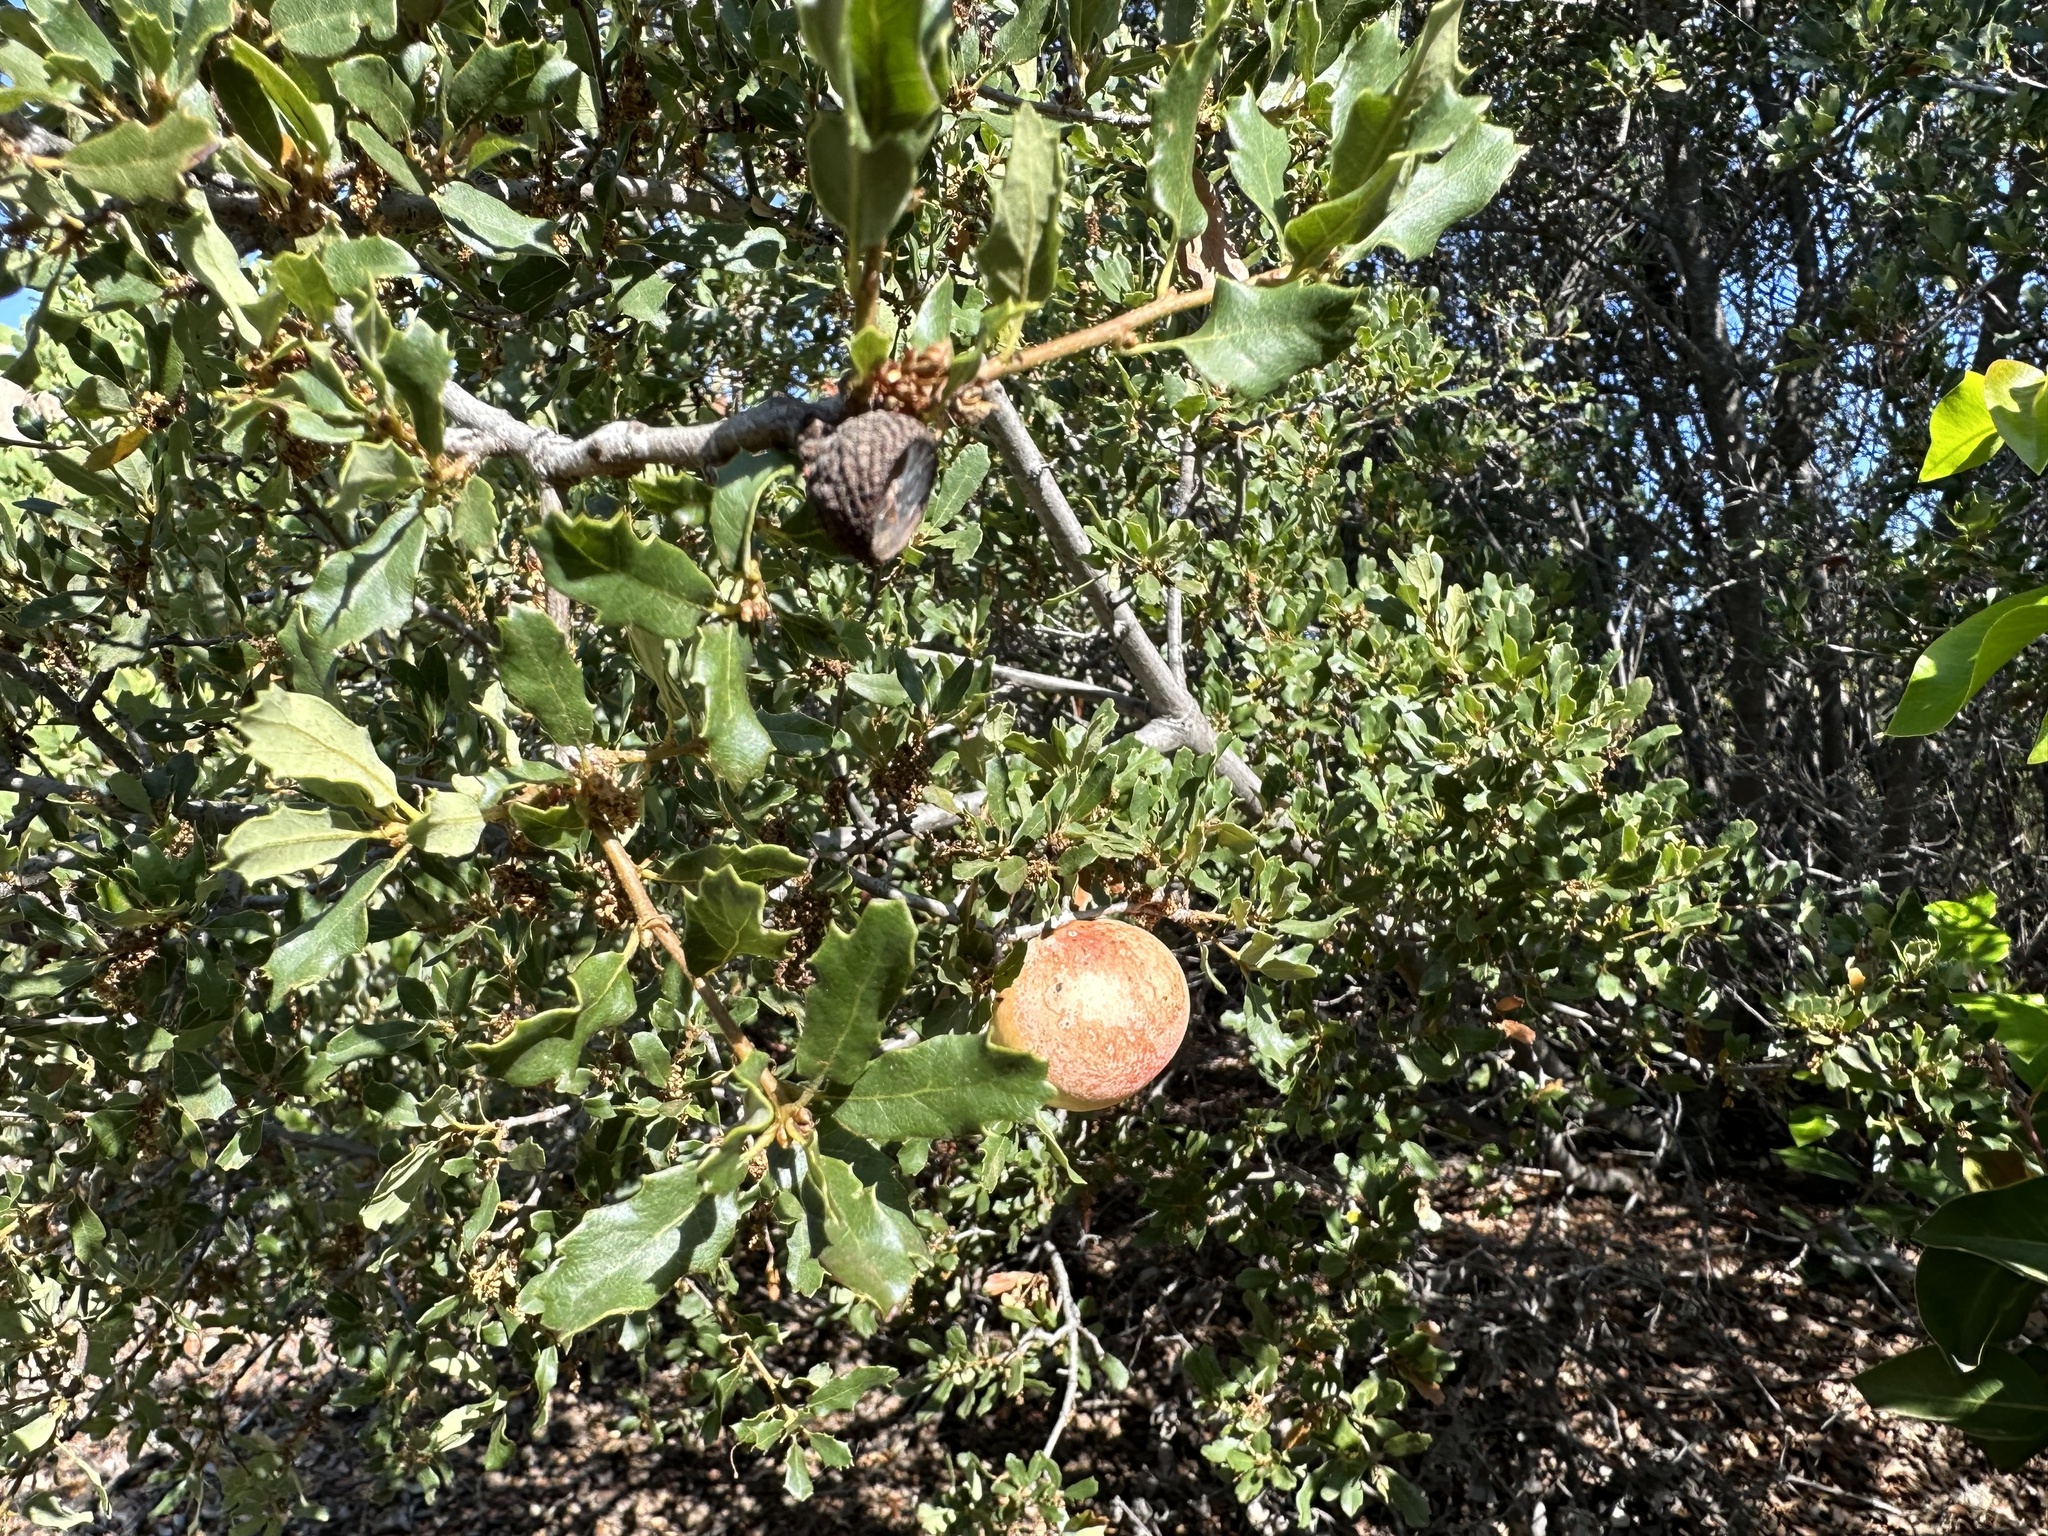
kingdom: Animalia
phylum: Arthropoda
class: Insecta
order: Hymenoptera
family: Cynipidae
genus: Andricus
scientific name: Andricus quercuscalifornicus
